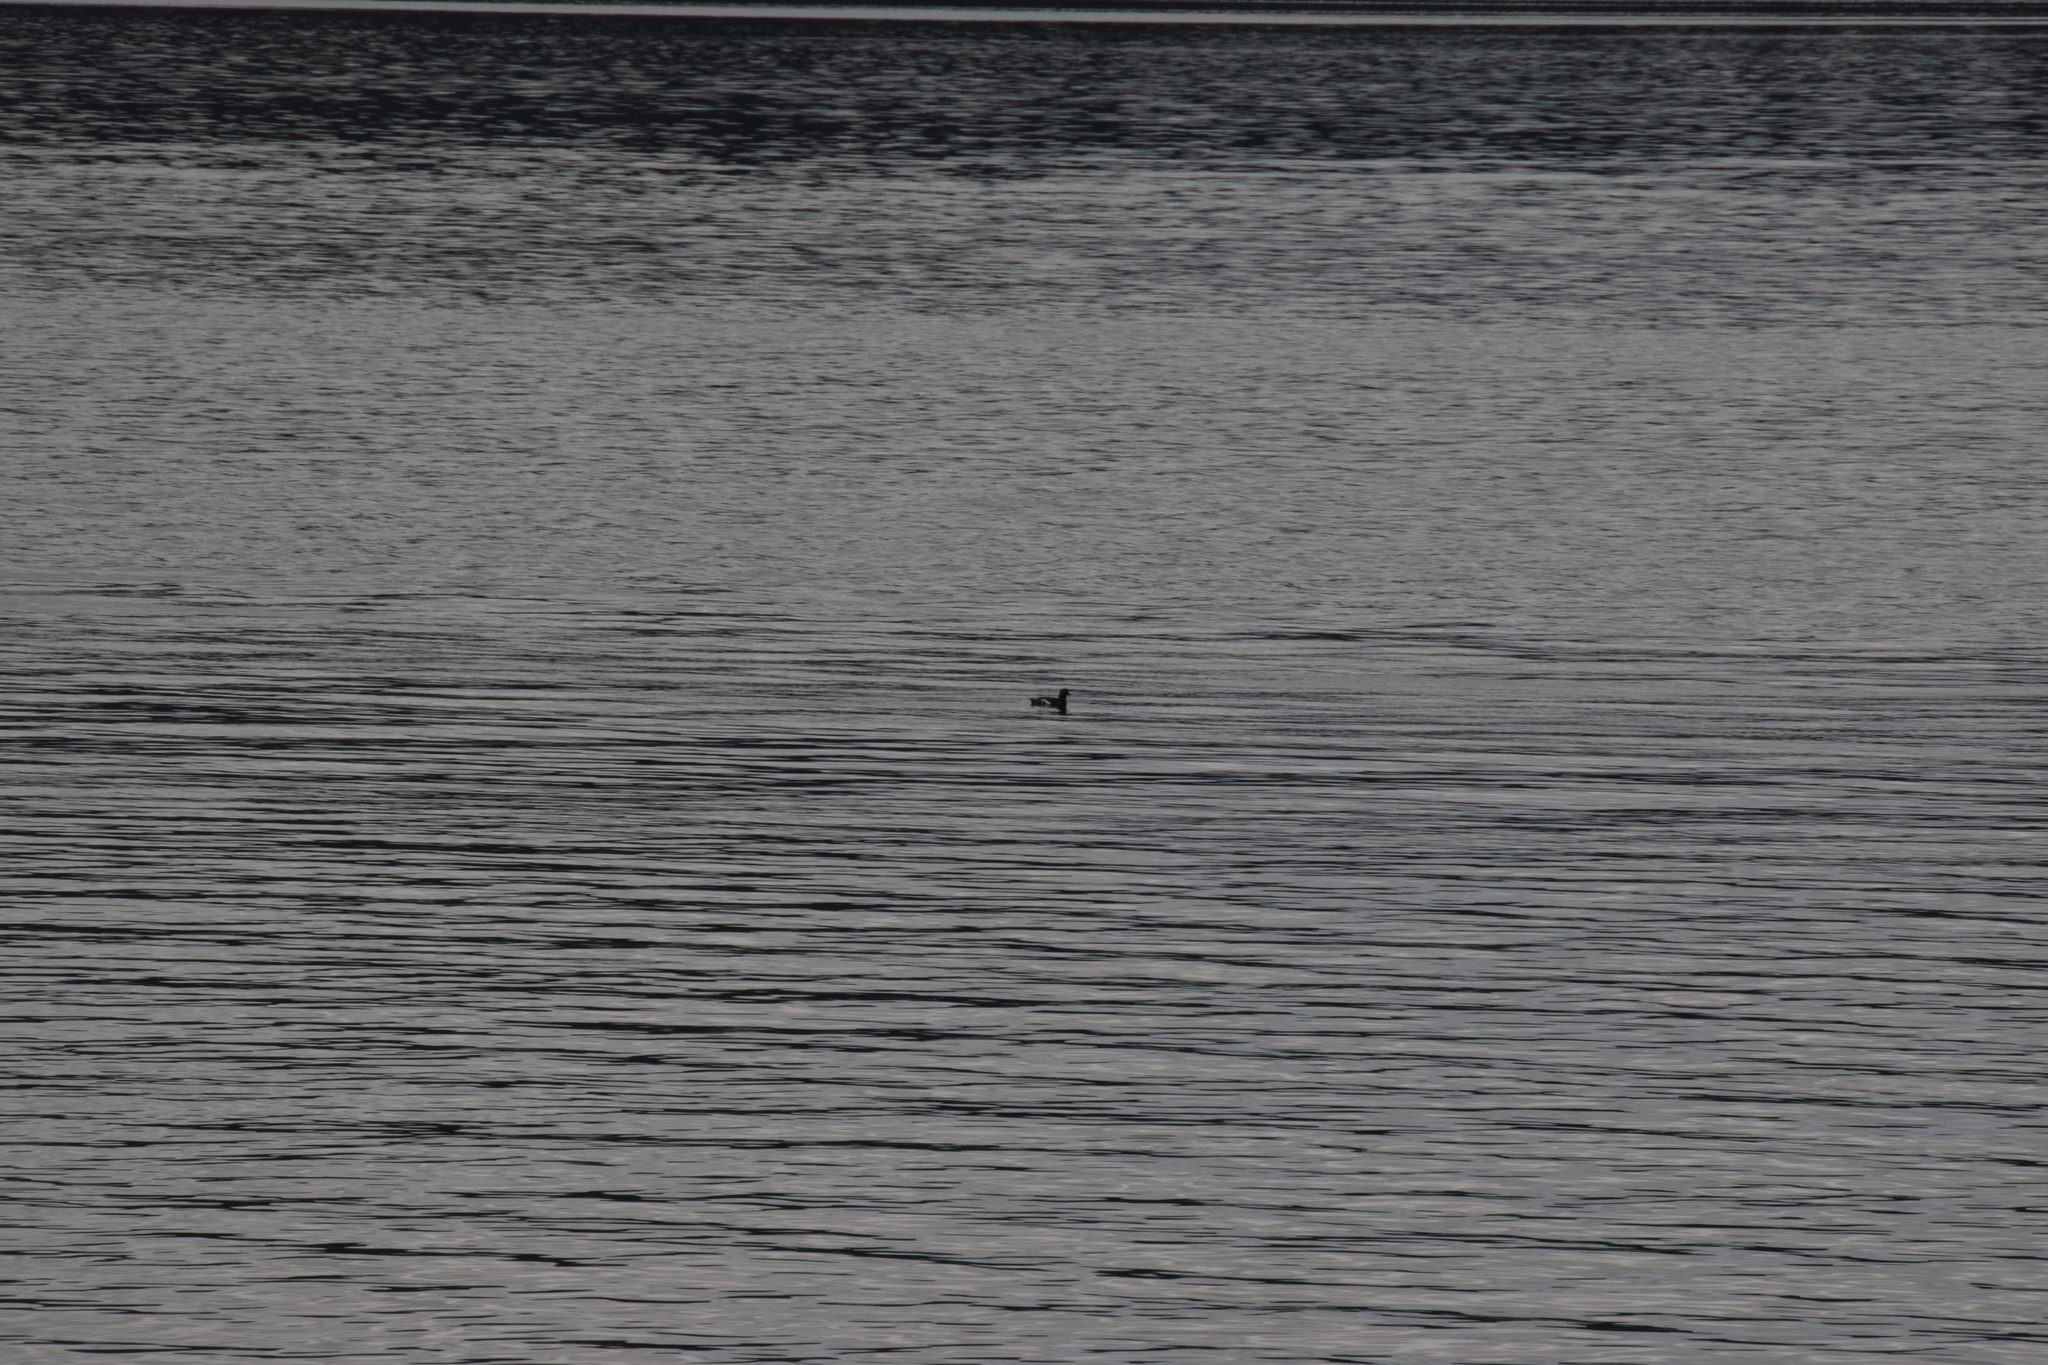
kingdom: Animalia
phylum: Chordata
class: Aves
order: Charadriiformes
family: Alcidae
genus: Cepphus
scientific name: Cepphus columba
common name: Pigeon guillemot
